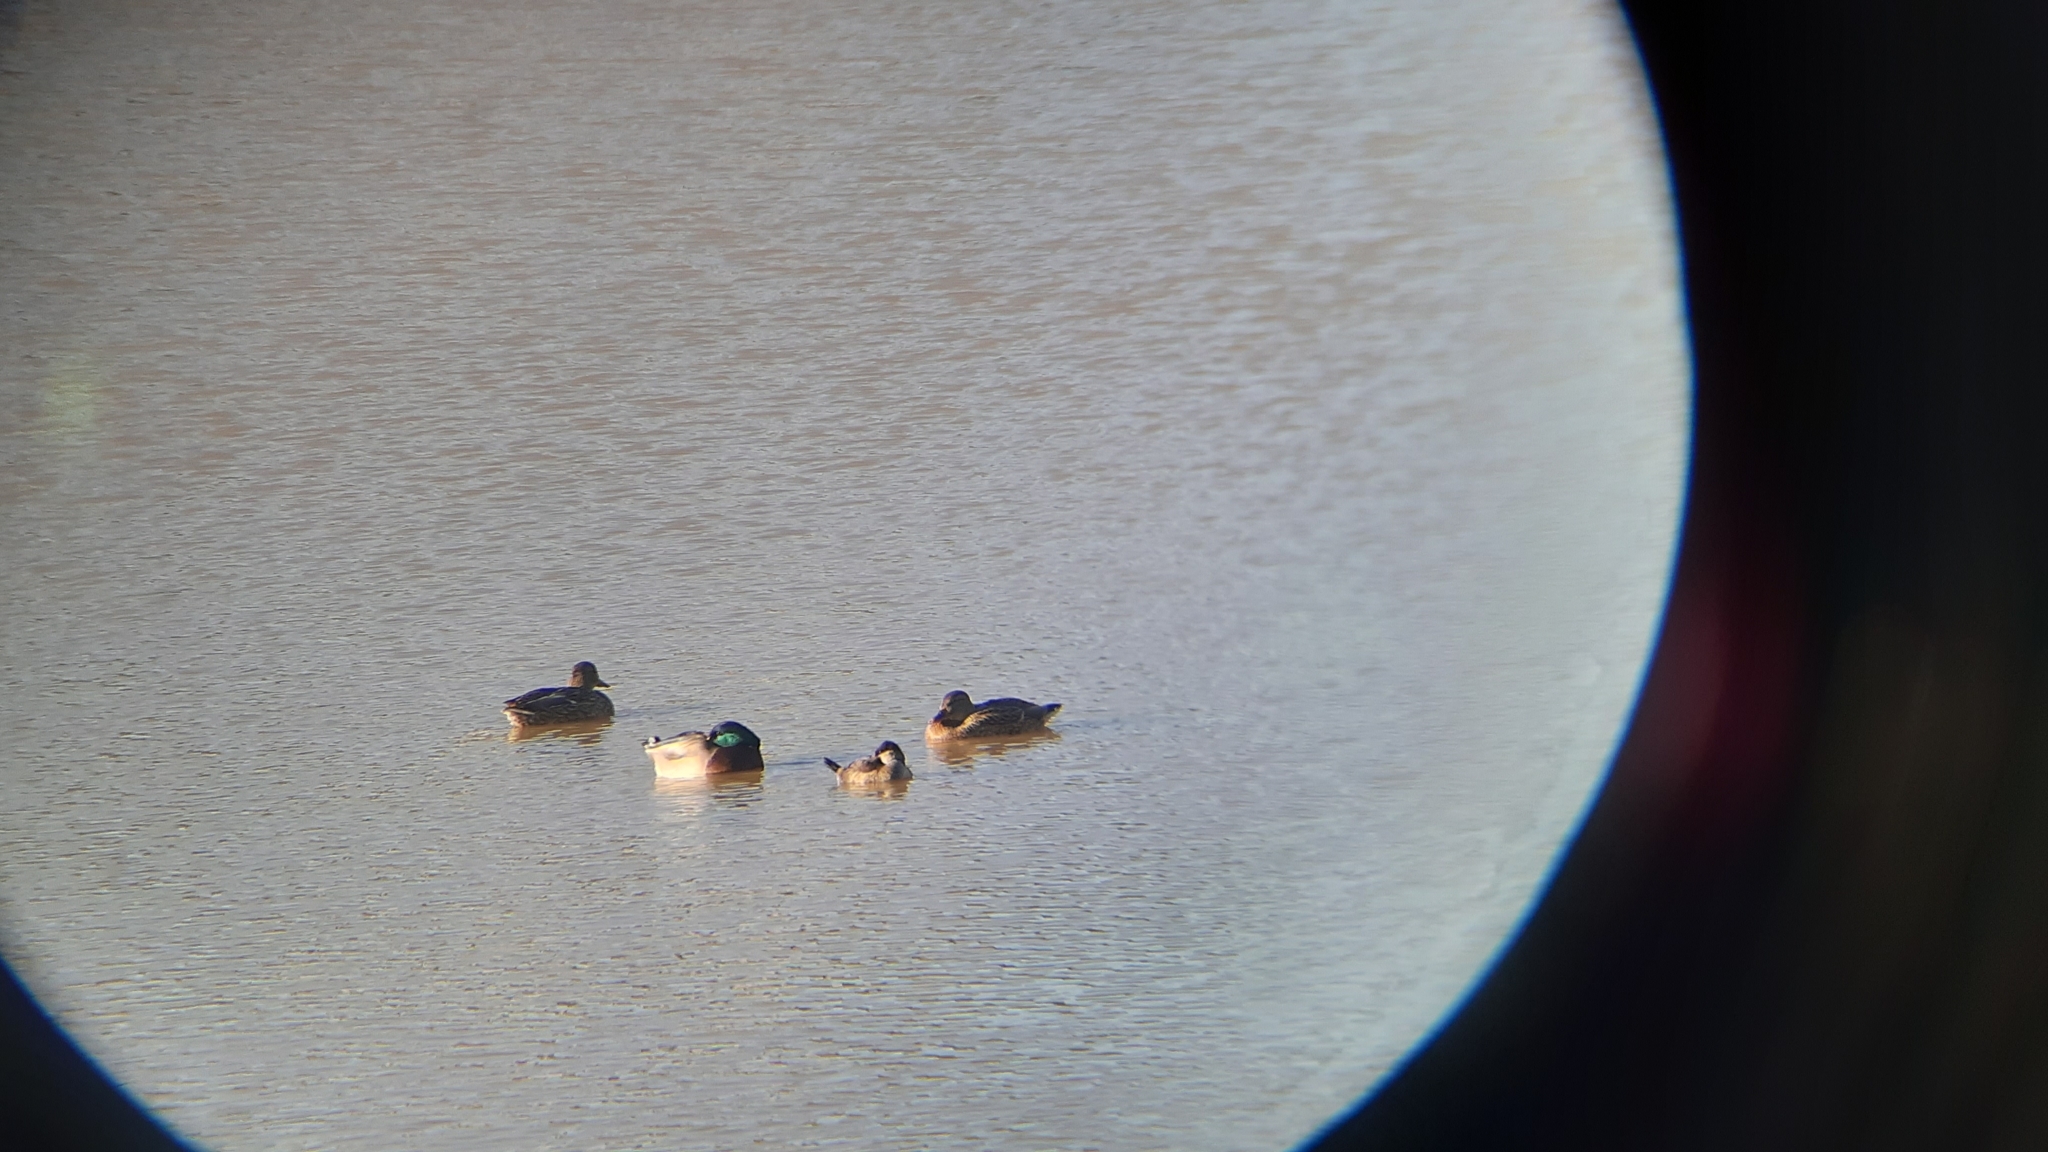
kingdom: Animalia
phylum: Chordata
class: Aves
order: Anseriformes
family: Anatidae
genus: Oxyura
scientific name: Oxyura jamaicensis
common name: Ruddy duck
